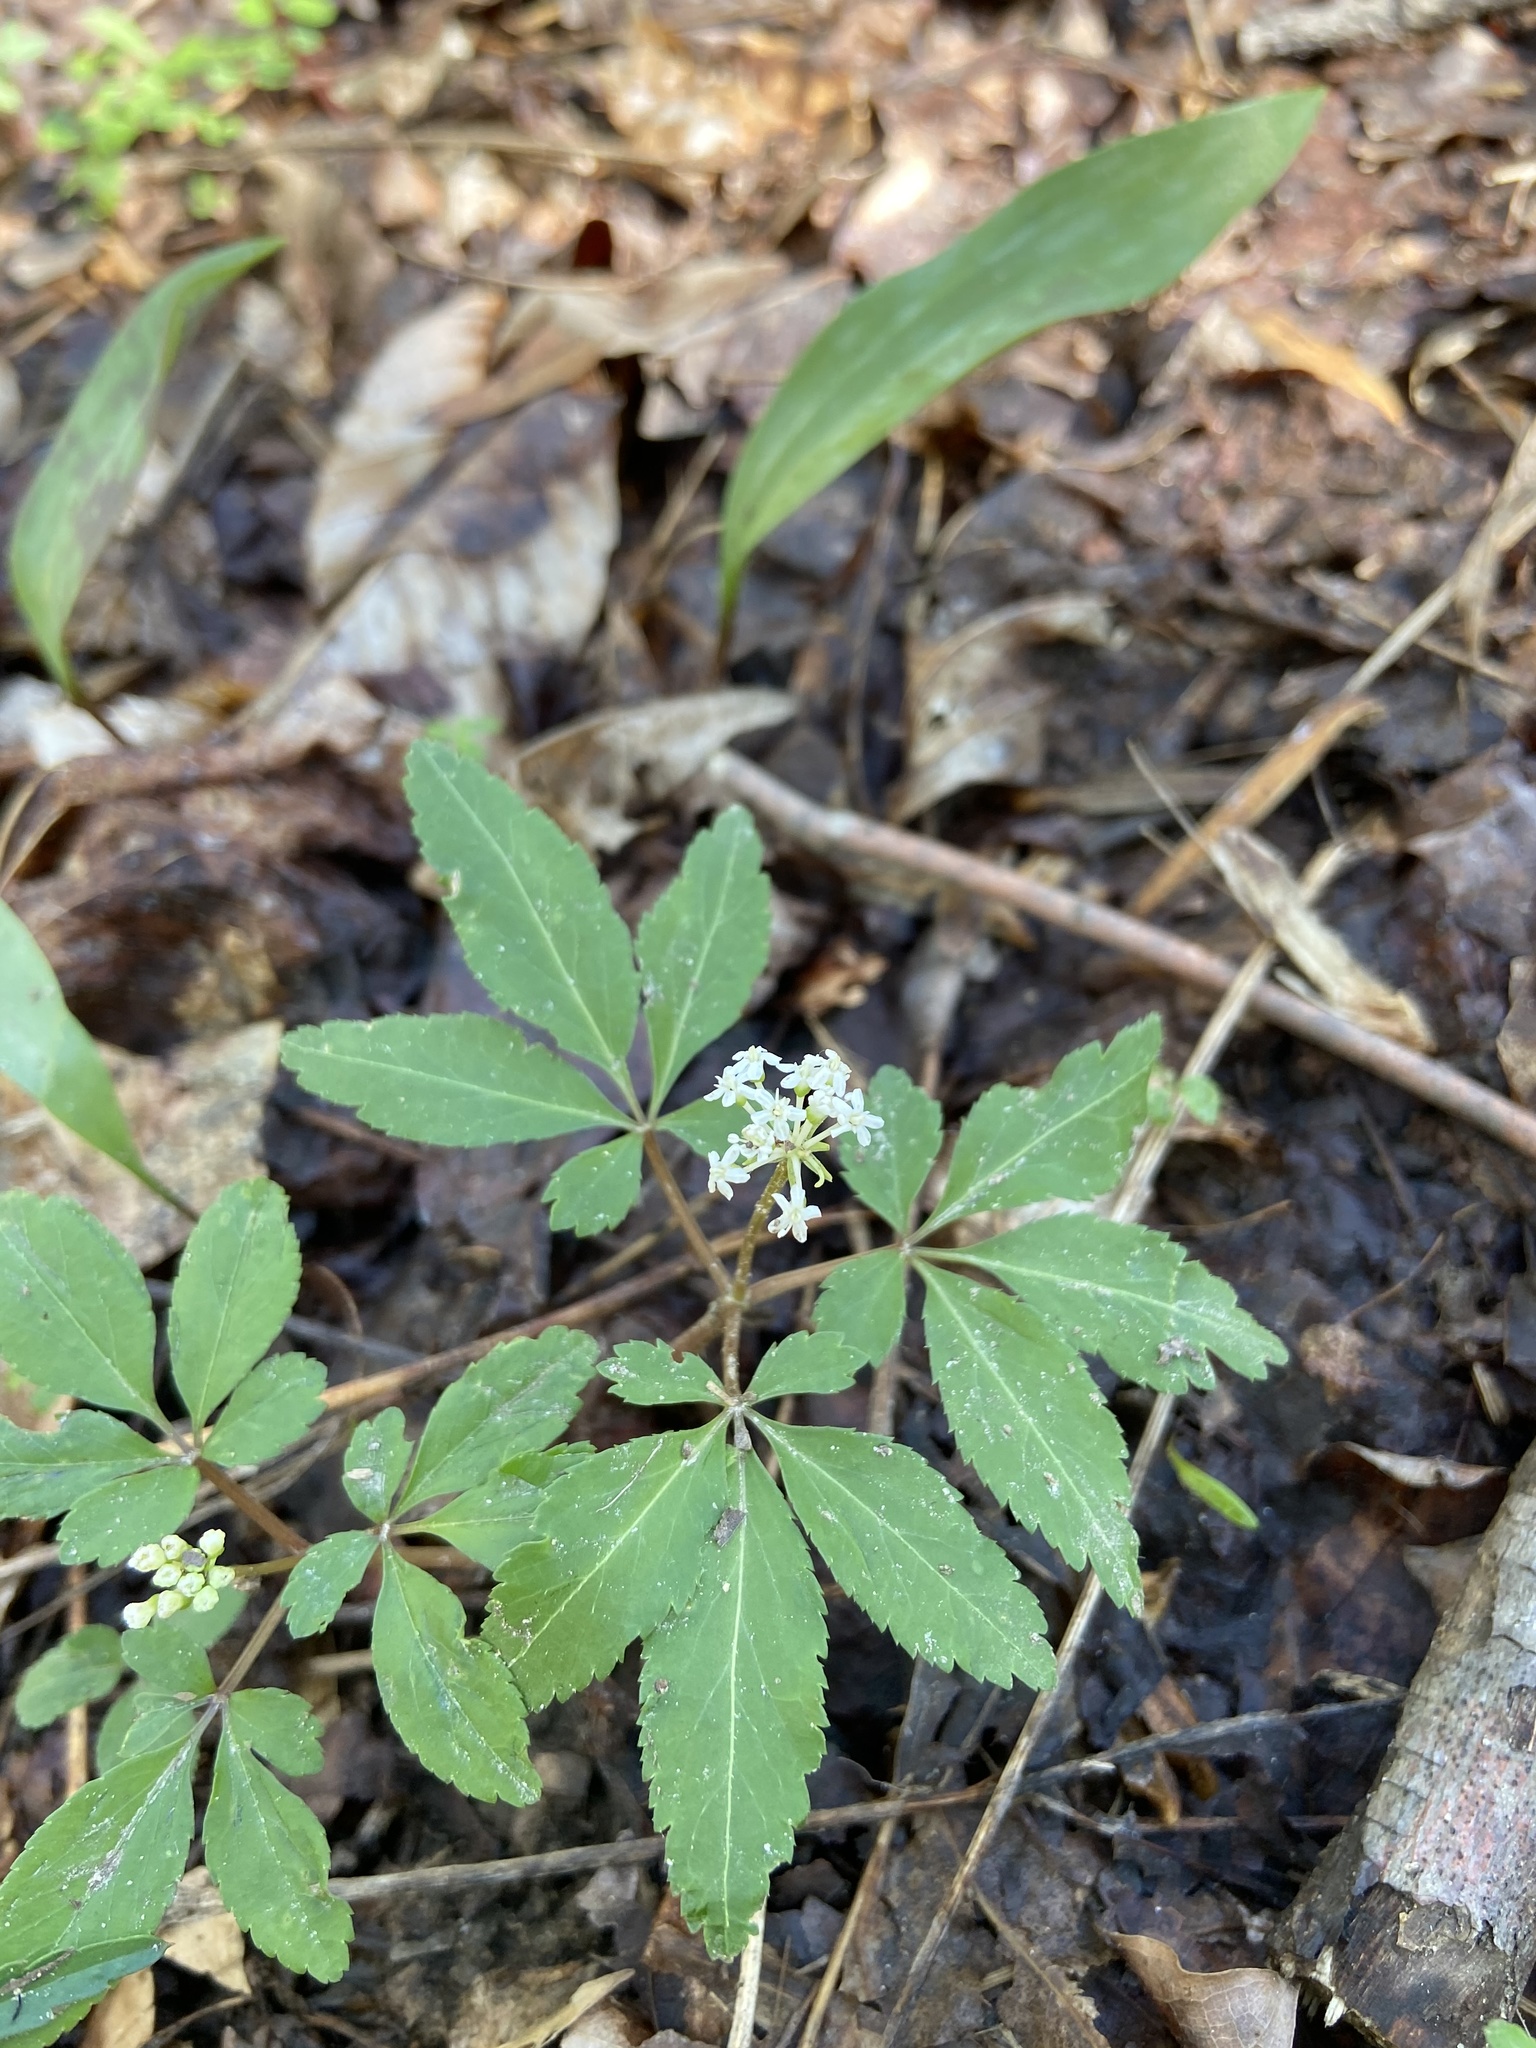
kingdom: Plantae
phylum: Tracheophyta
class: Magnoliopsida
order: Apiales
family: Araliaceae
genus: Panax
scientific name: Panax trifolius
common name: Dwarf ginseng
